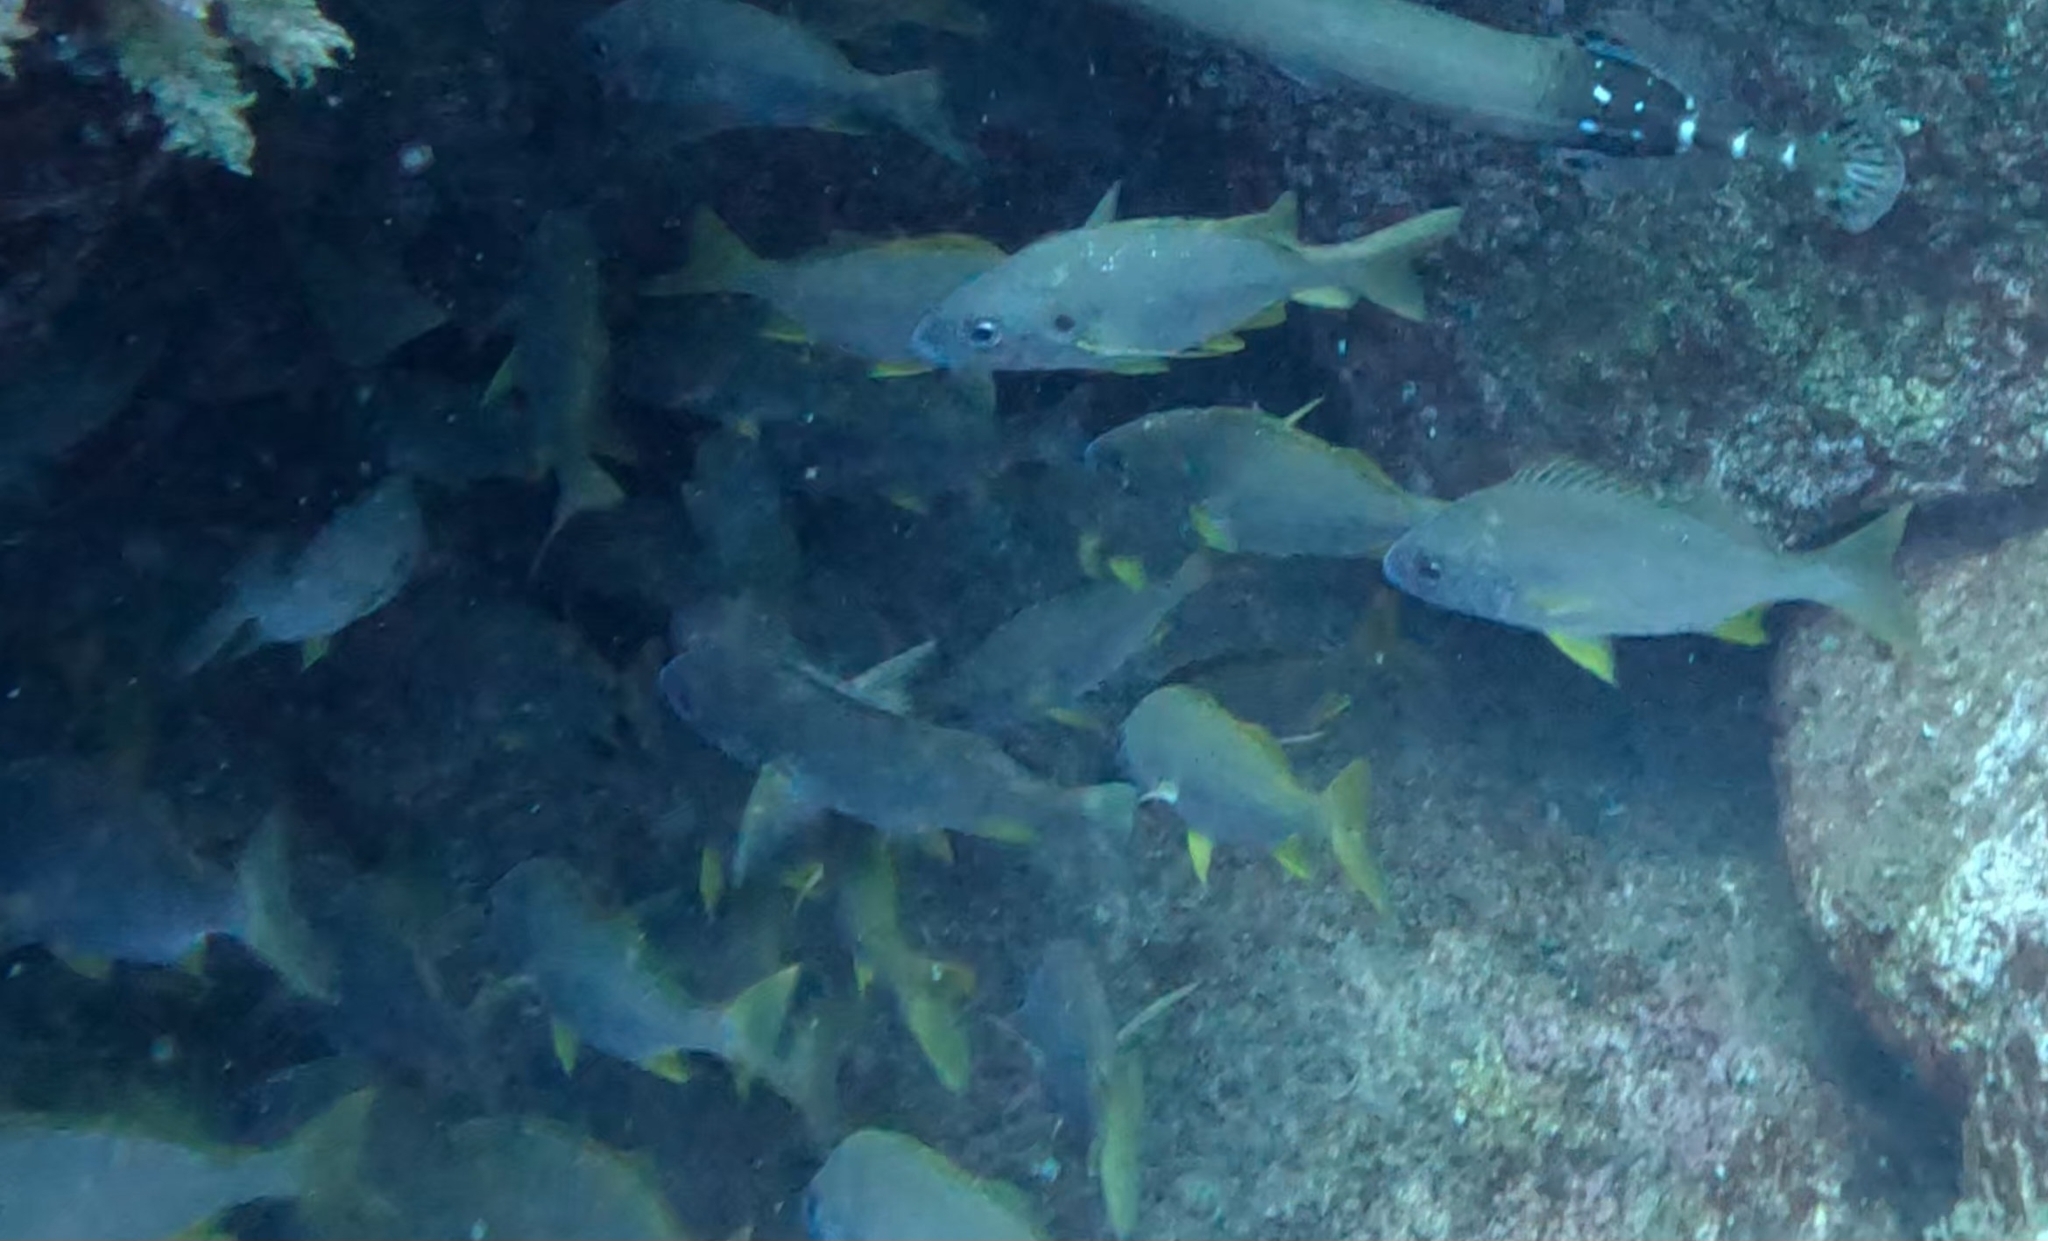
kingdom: Animalia
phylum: Chordata
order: Perciformes
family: Haemulidae
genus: Pomadasys
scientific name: Pomadasys incisus
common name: Bastard grunt
